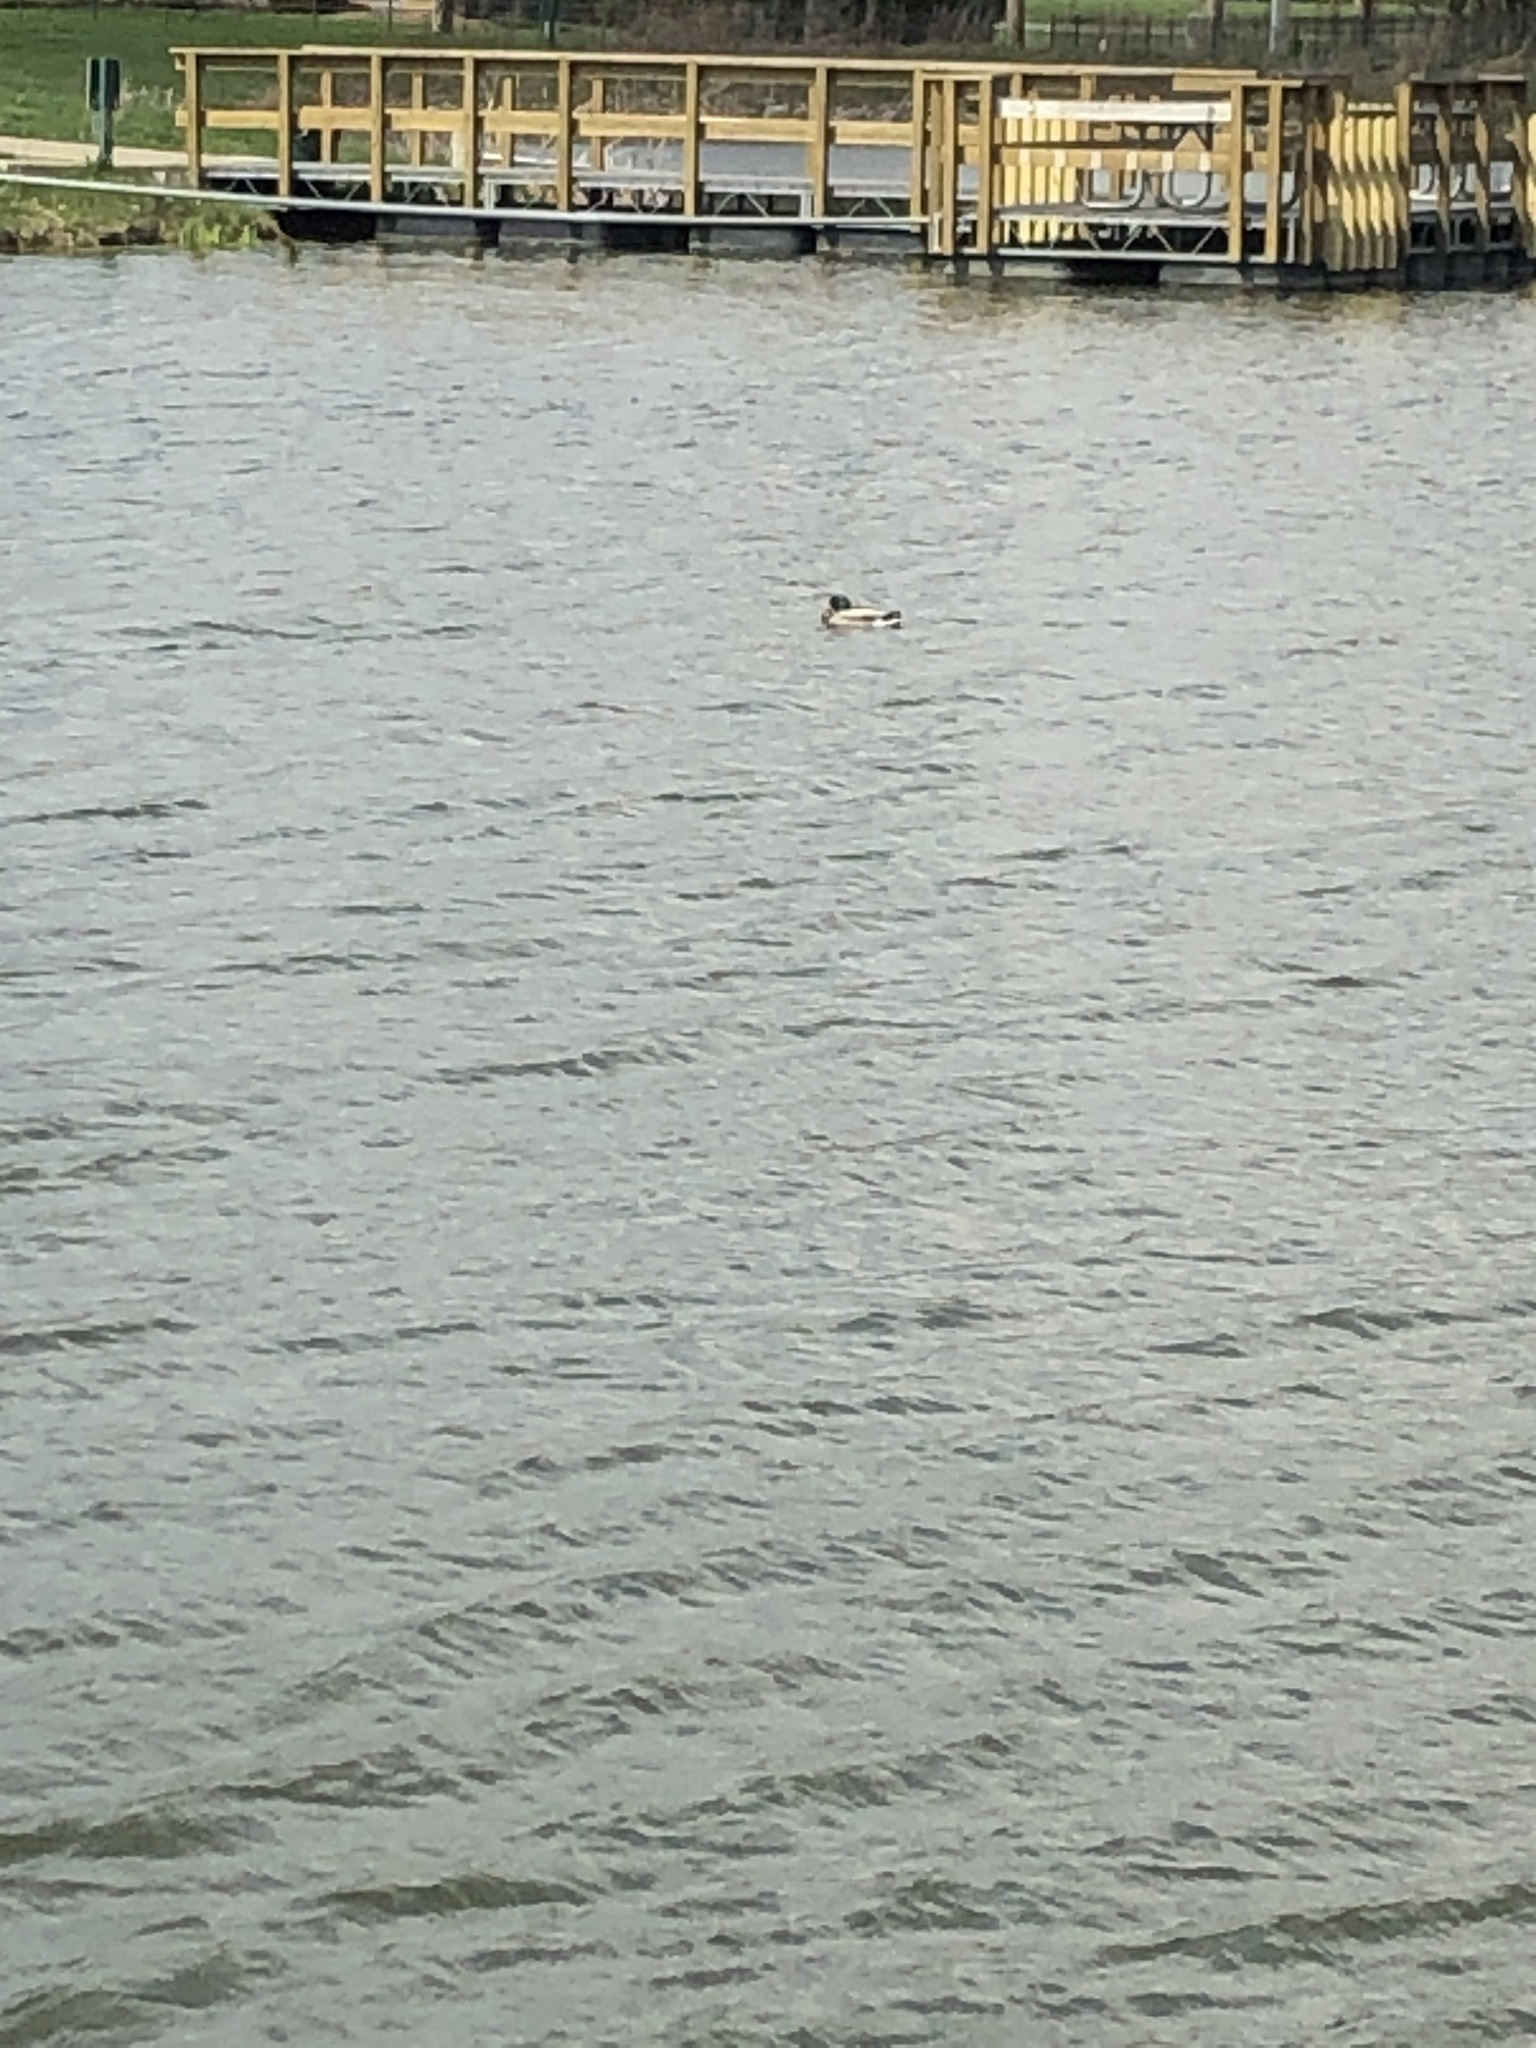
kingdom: Animalia
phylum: Chordata
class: Aves
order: Anseriformes
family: Anatidae
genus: Anas
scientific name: Anas platyrhynchos
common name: Mallard
